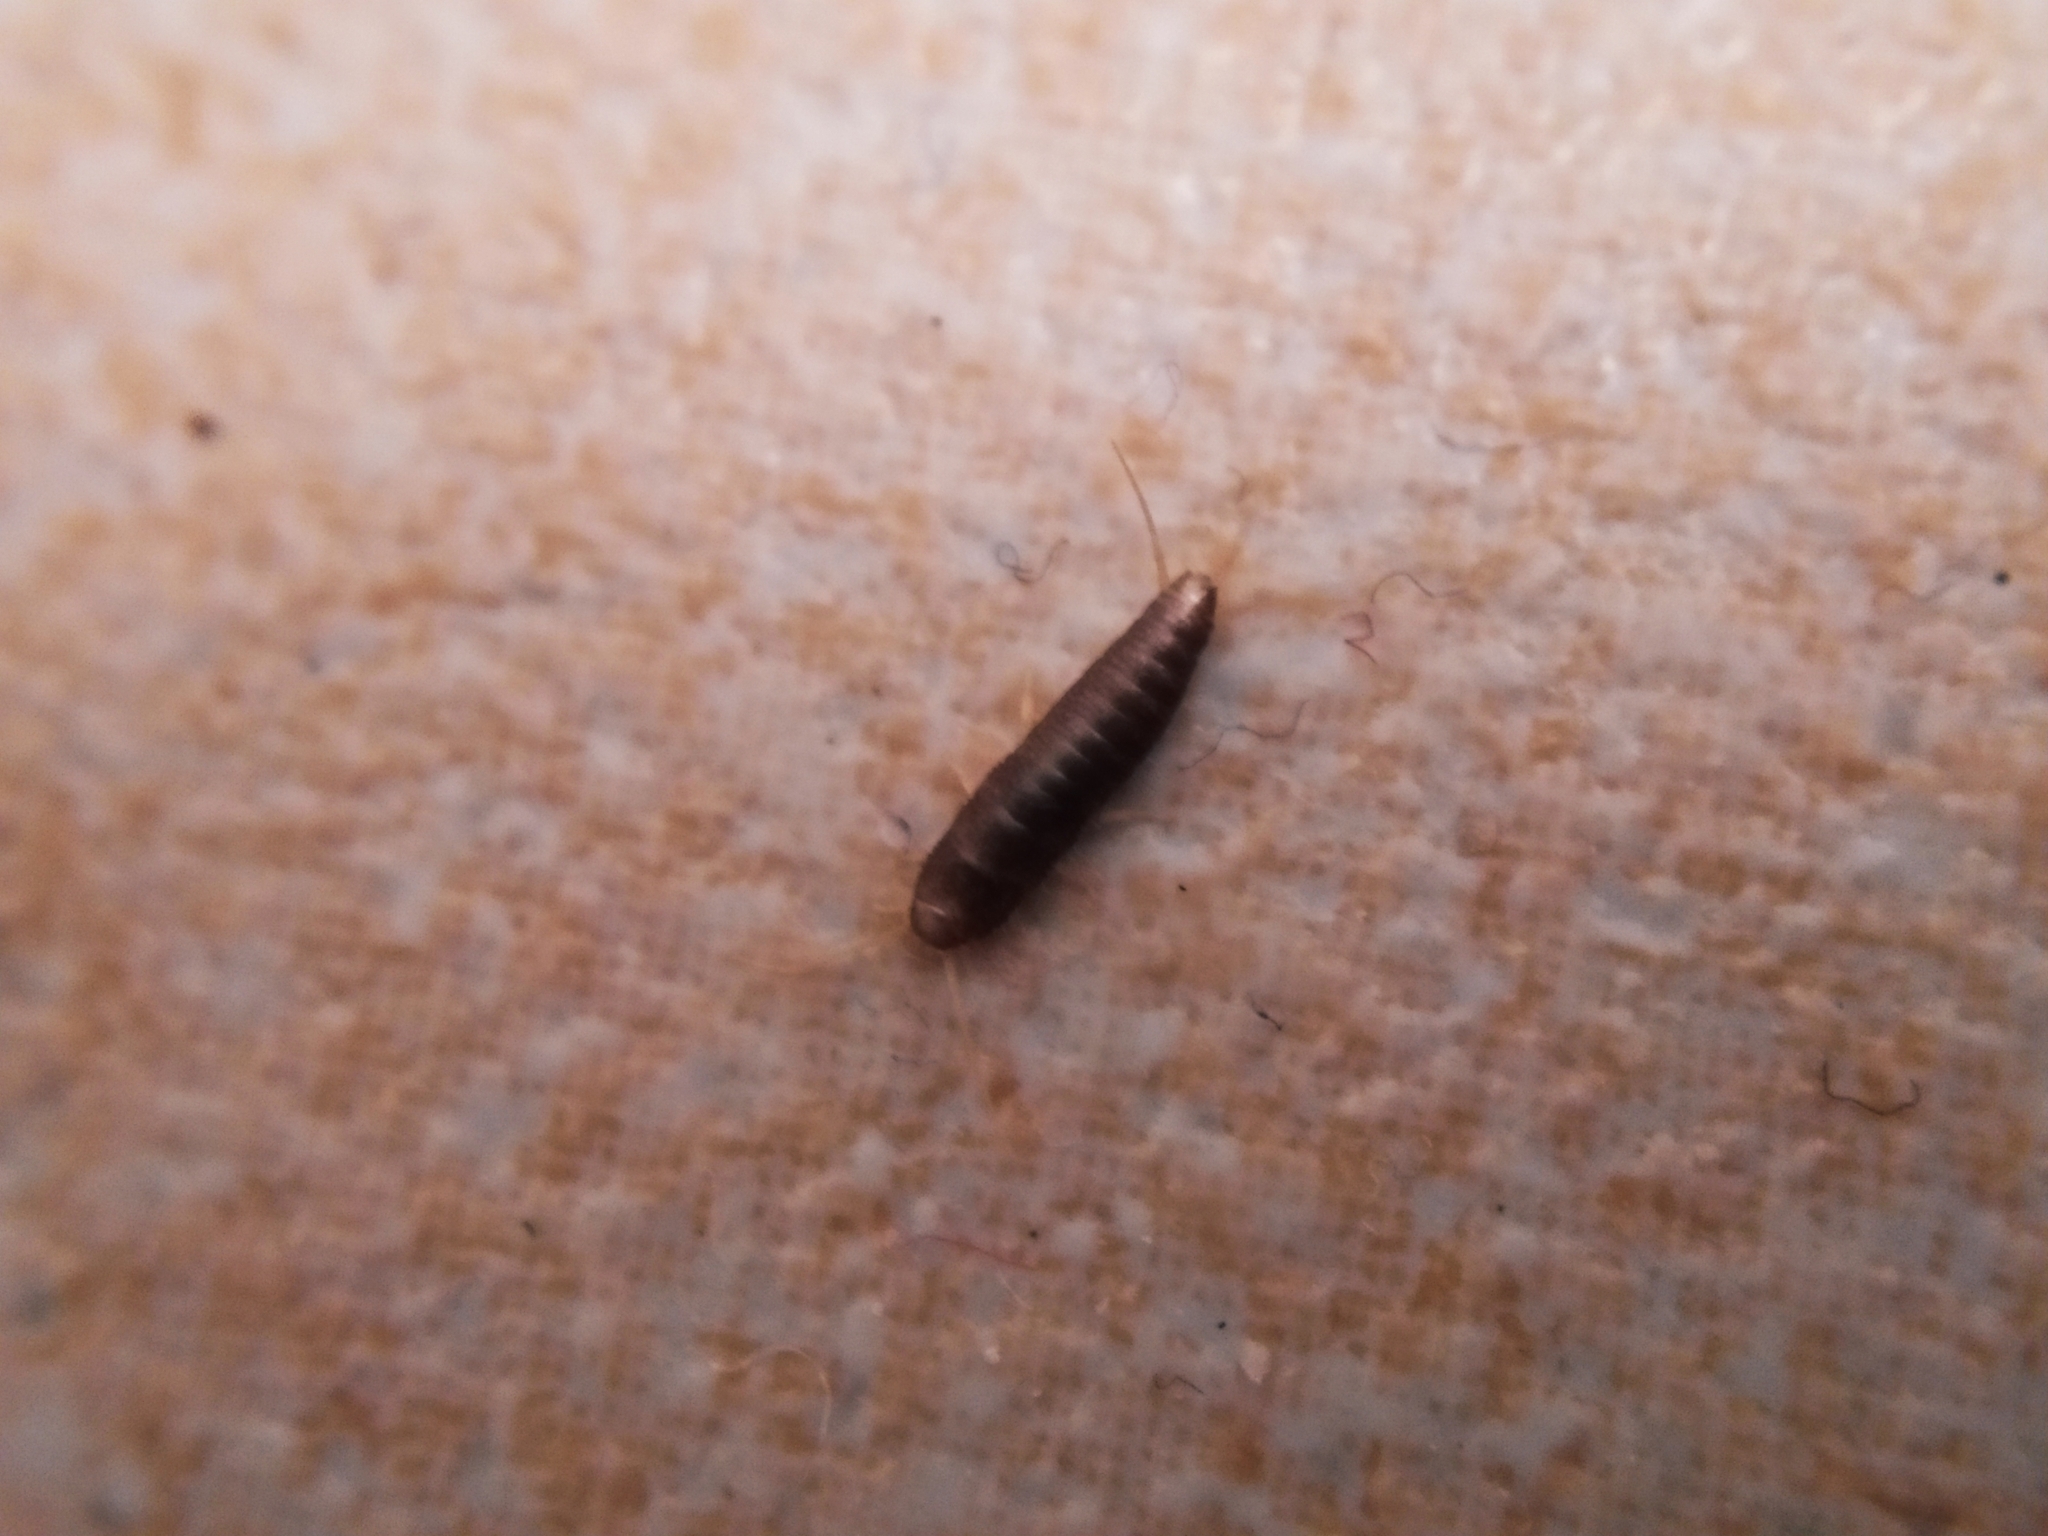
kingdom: Animalia
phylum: Arthropoda
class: Insecta
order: Zygentoma
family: Lepismatidae
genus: Lepisma
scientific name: Lepisma saccharinum
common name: Silverfish
